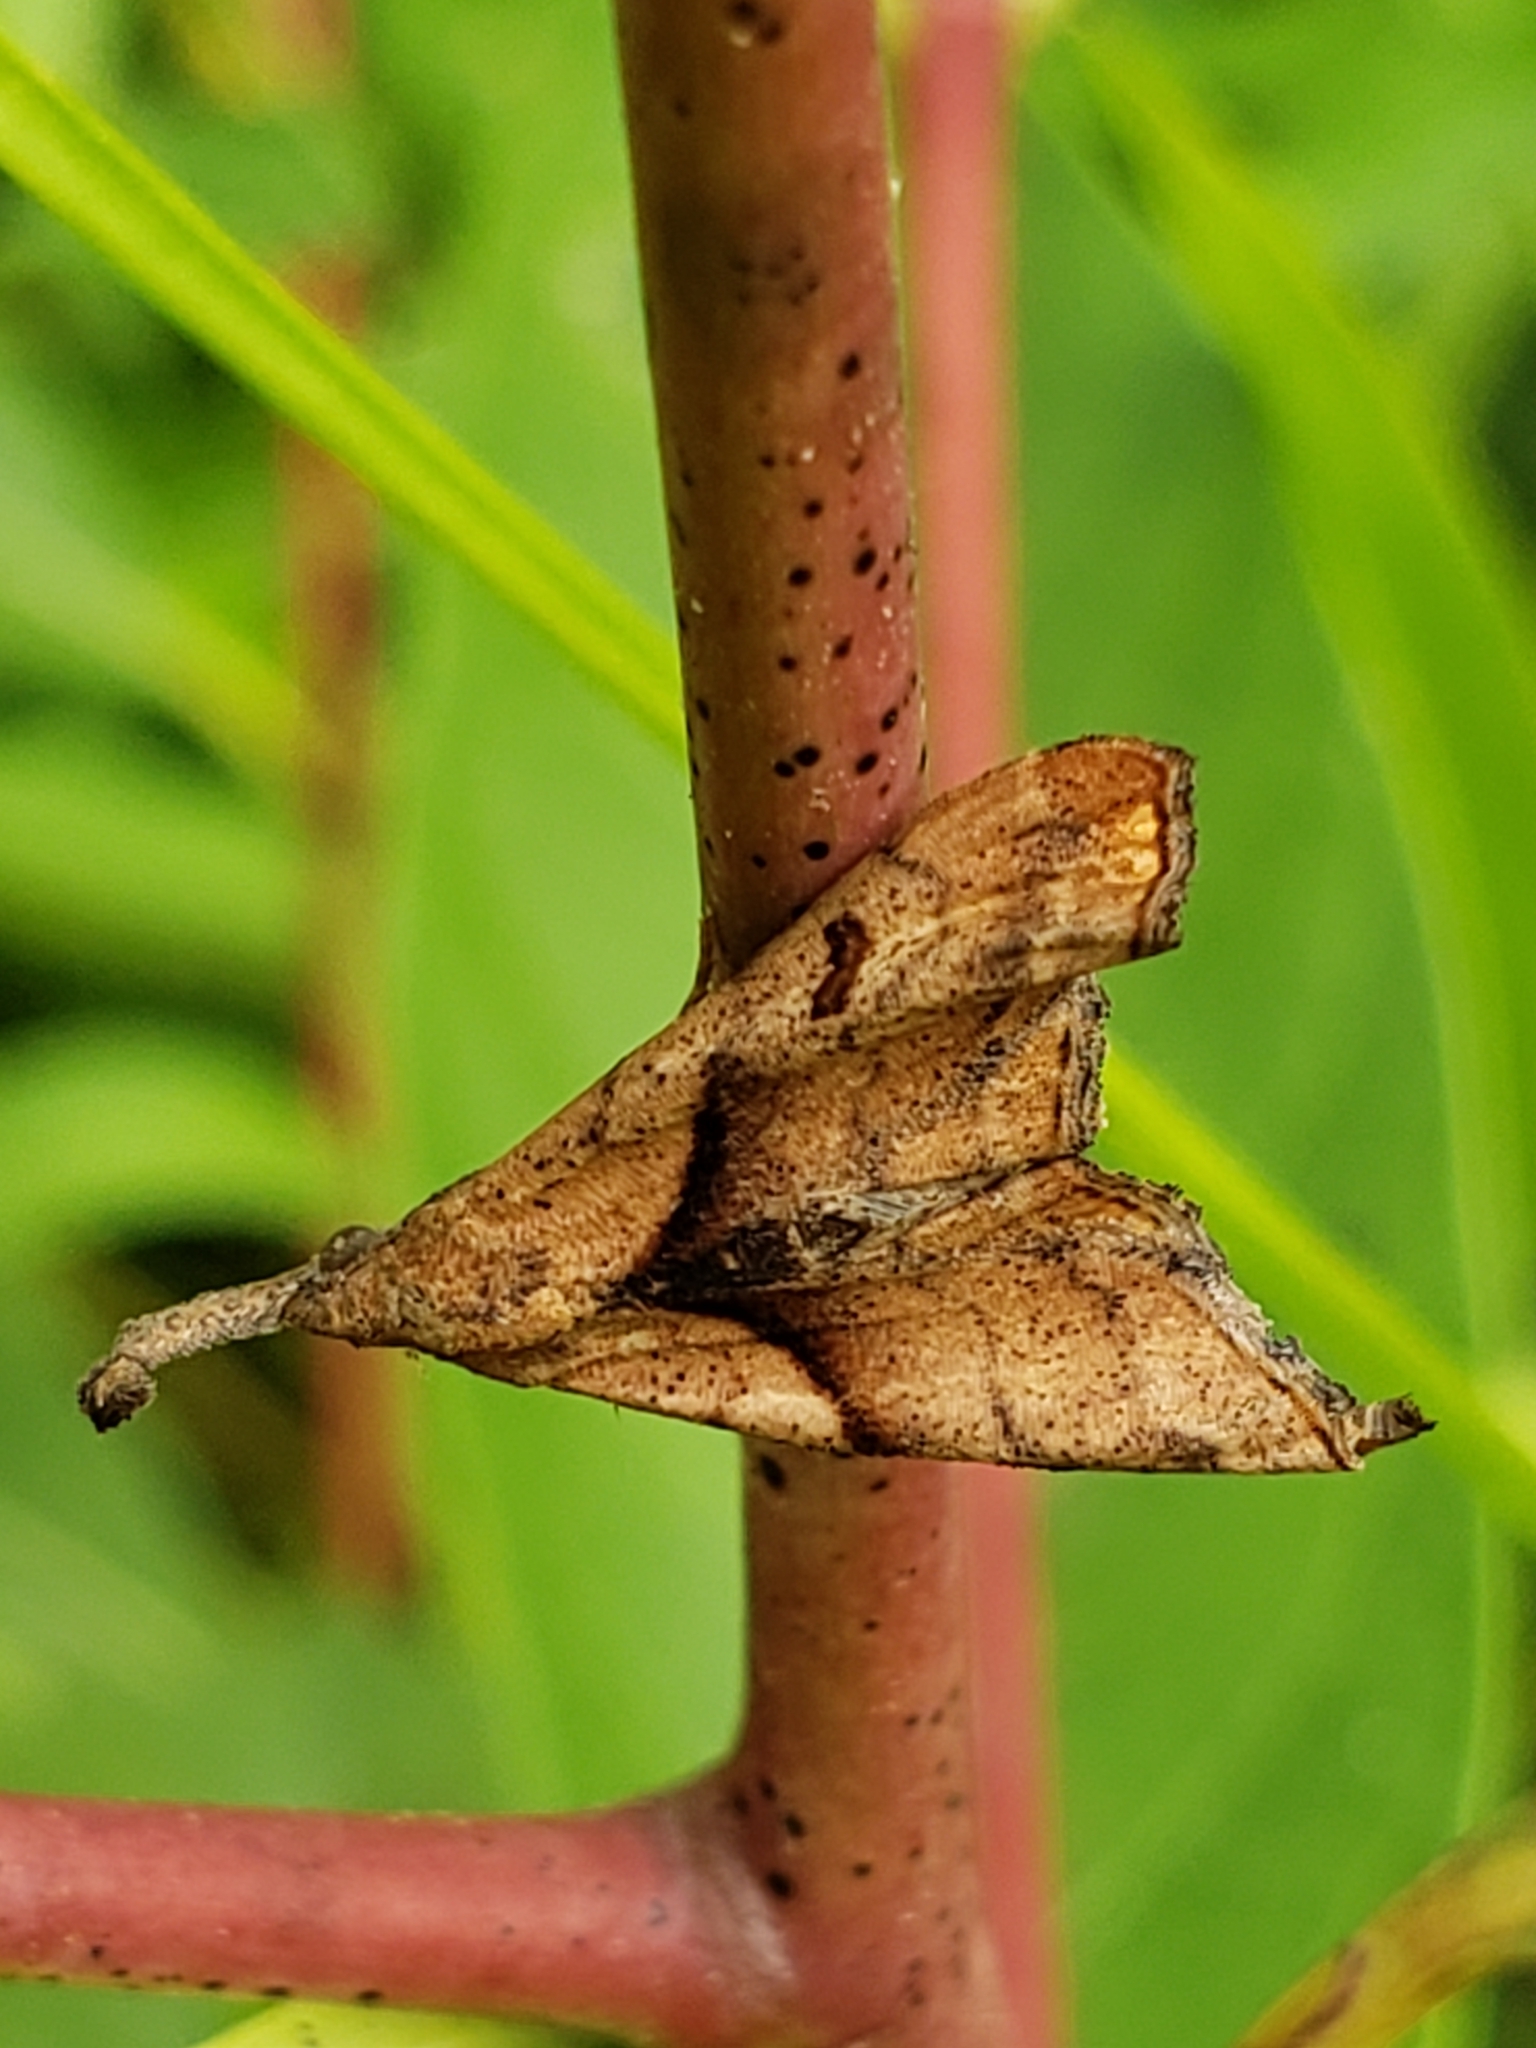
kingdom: Animalia
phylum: Arthropoda
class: Insecta
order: Lepidoptera
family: Erebidae
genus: Palthis
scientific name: Palthis angulalis
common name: Dark-spotted palthis moth
